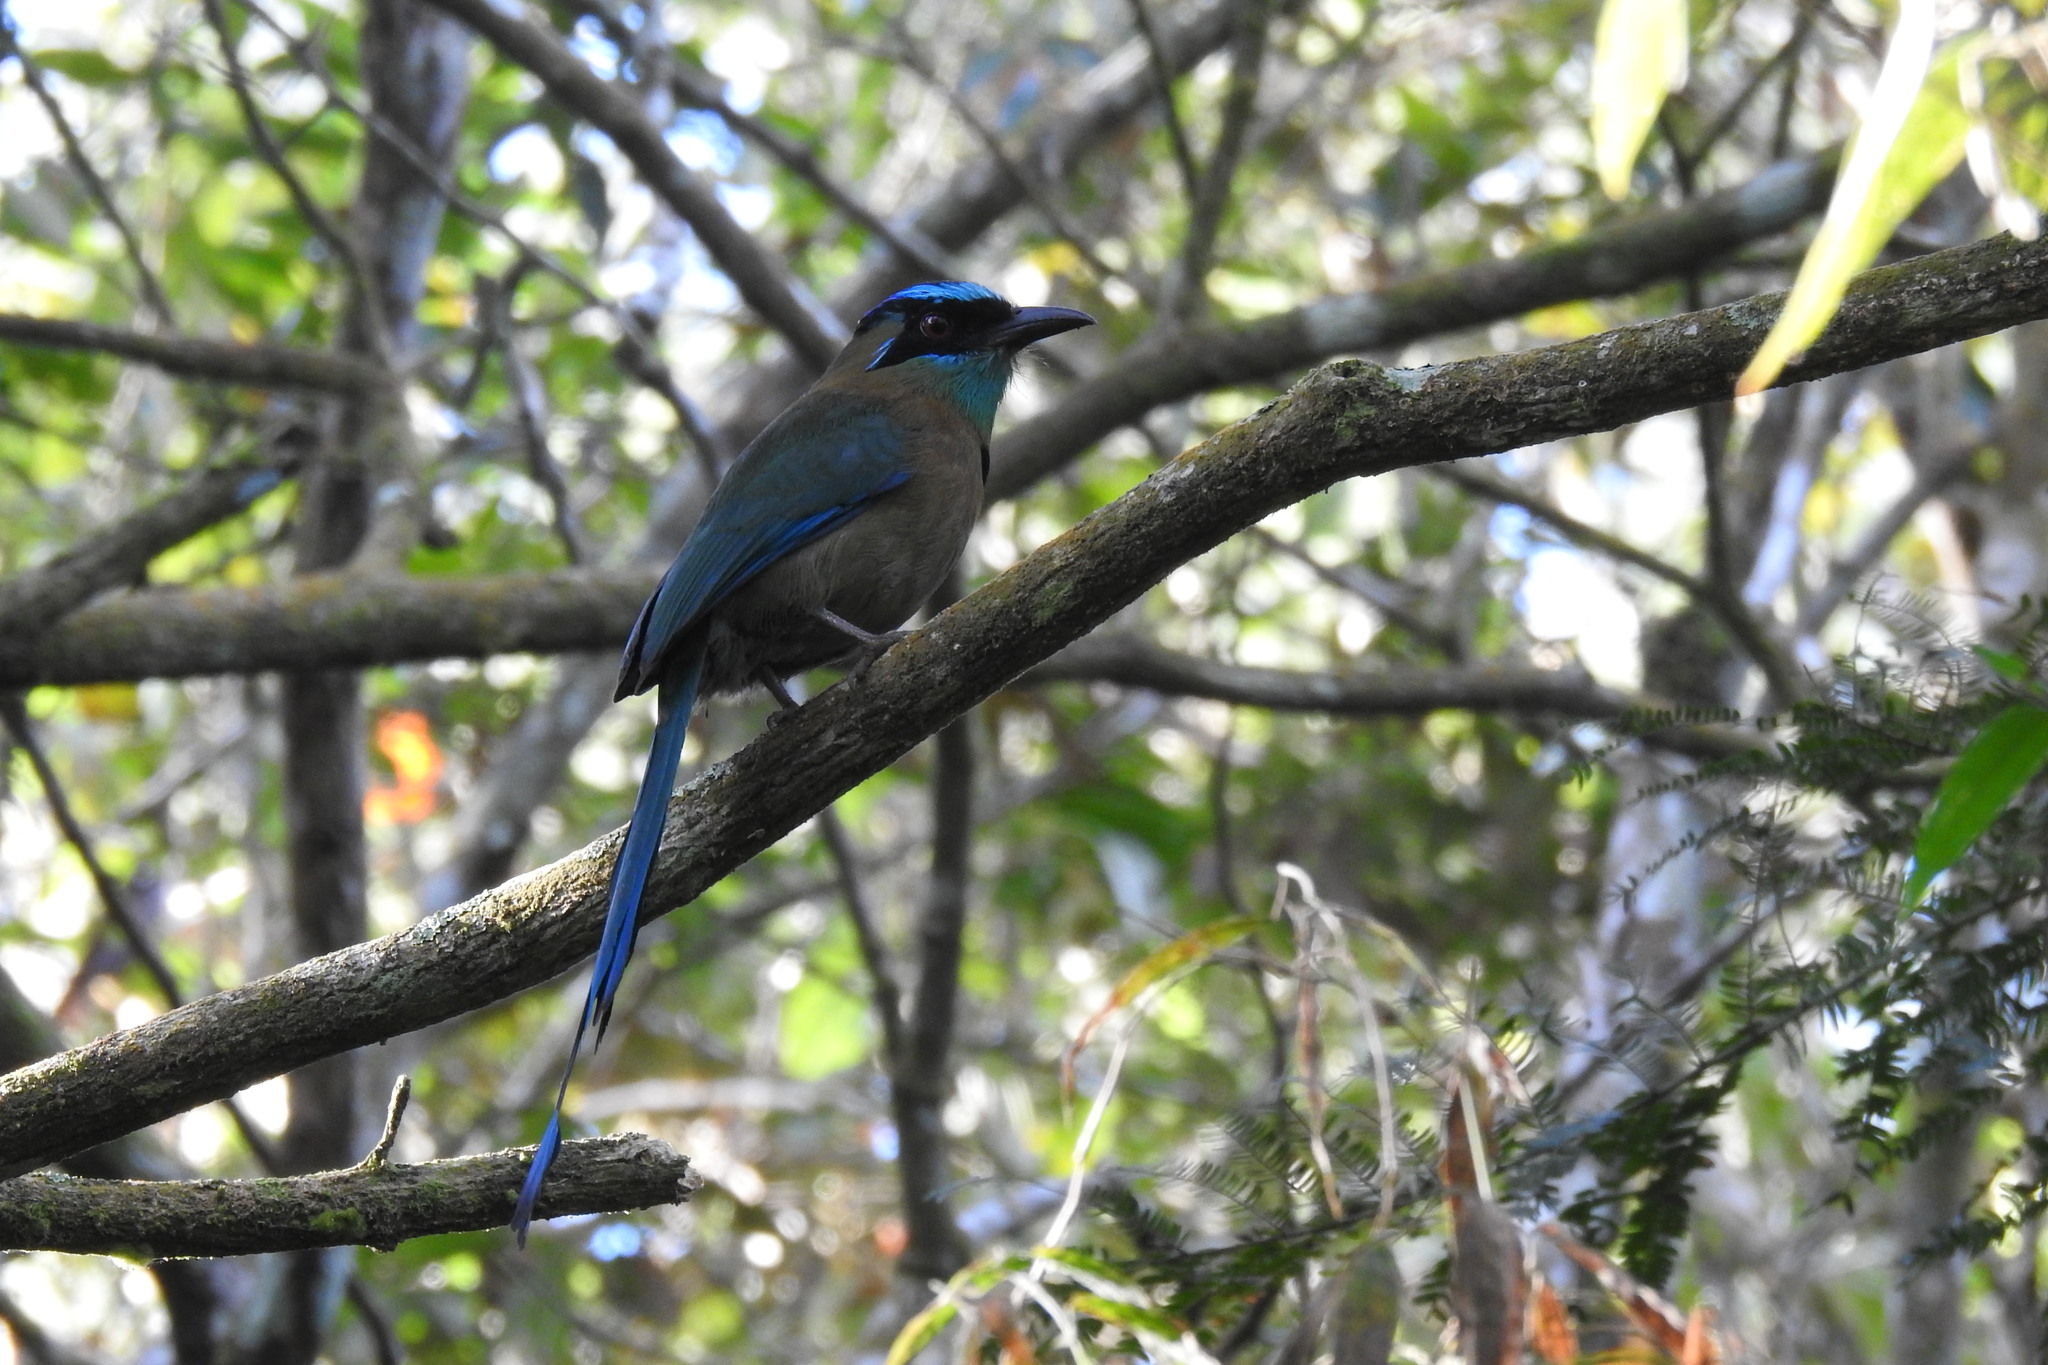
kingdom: Animalia
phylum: Chordata
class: Aves
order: Coraciiformes
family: Momotidae
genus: Momotus
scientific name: Momotus lessonii
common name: Lesson's motmot
